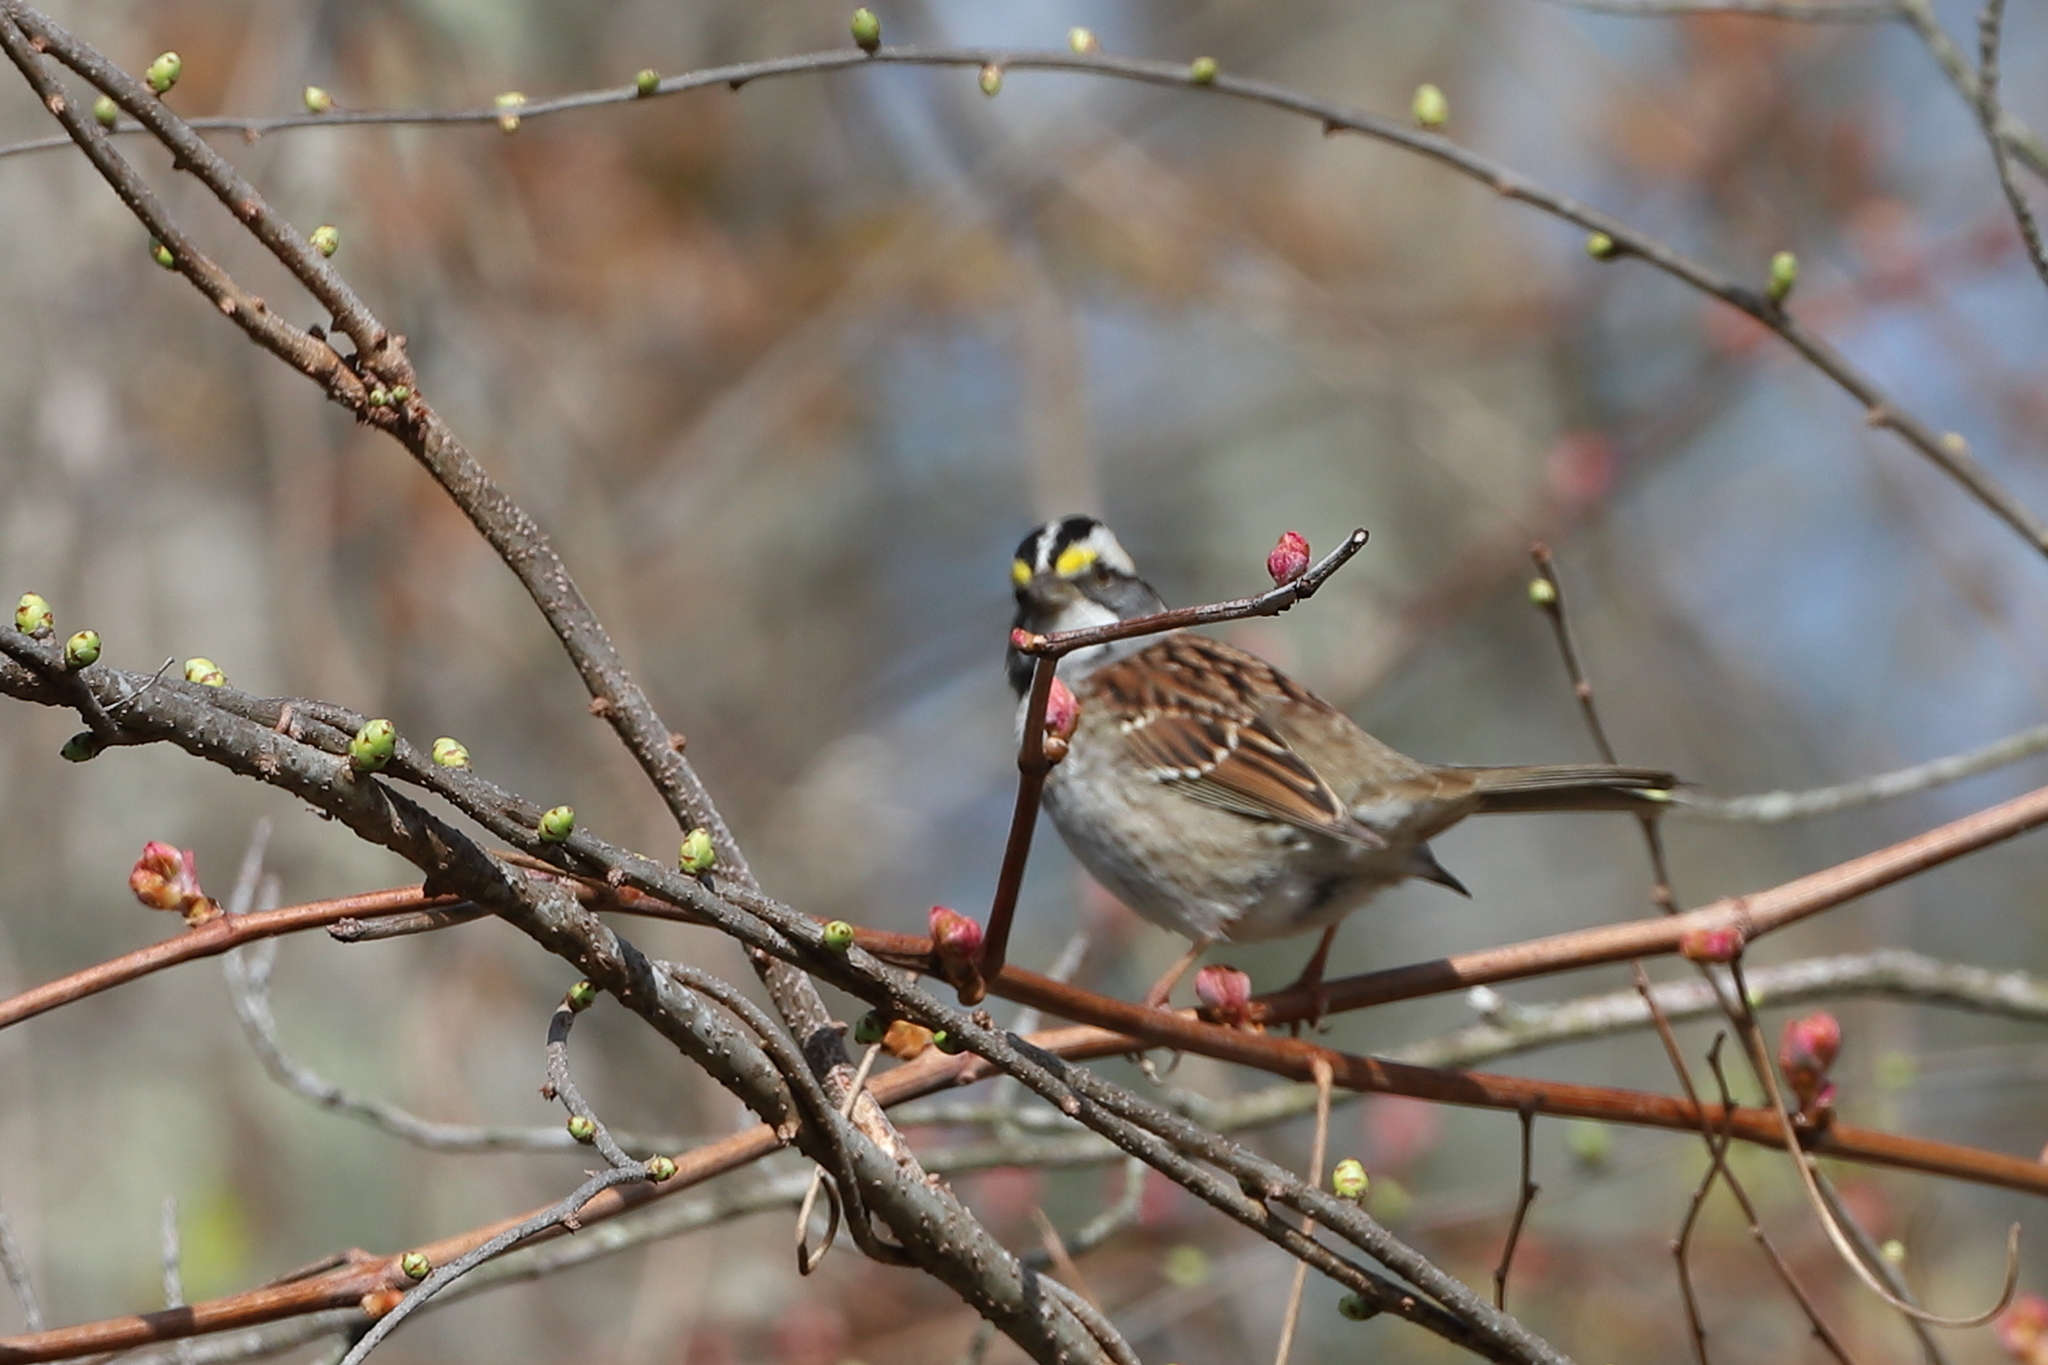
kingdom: Animalia
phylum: Chordata
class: Aves
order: Passeriformes
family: Passerellidae
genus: Zonotrichia
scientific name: Zonotrichia albicollis
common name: White-throated sparrow
